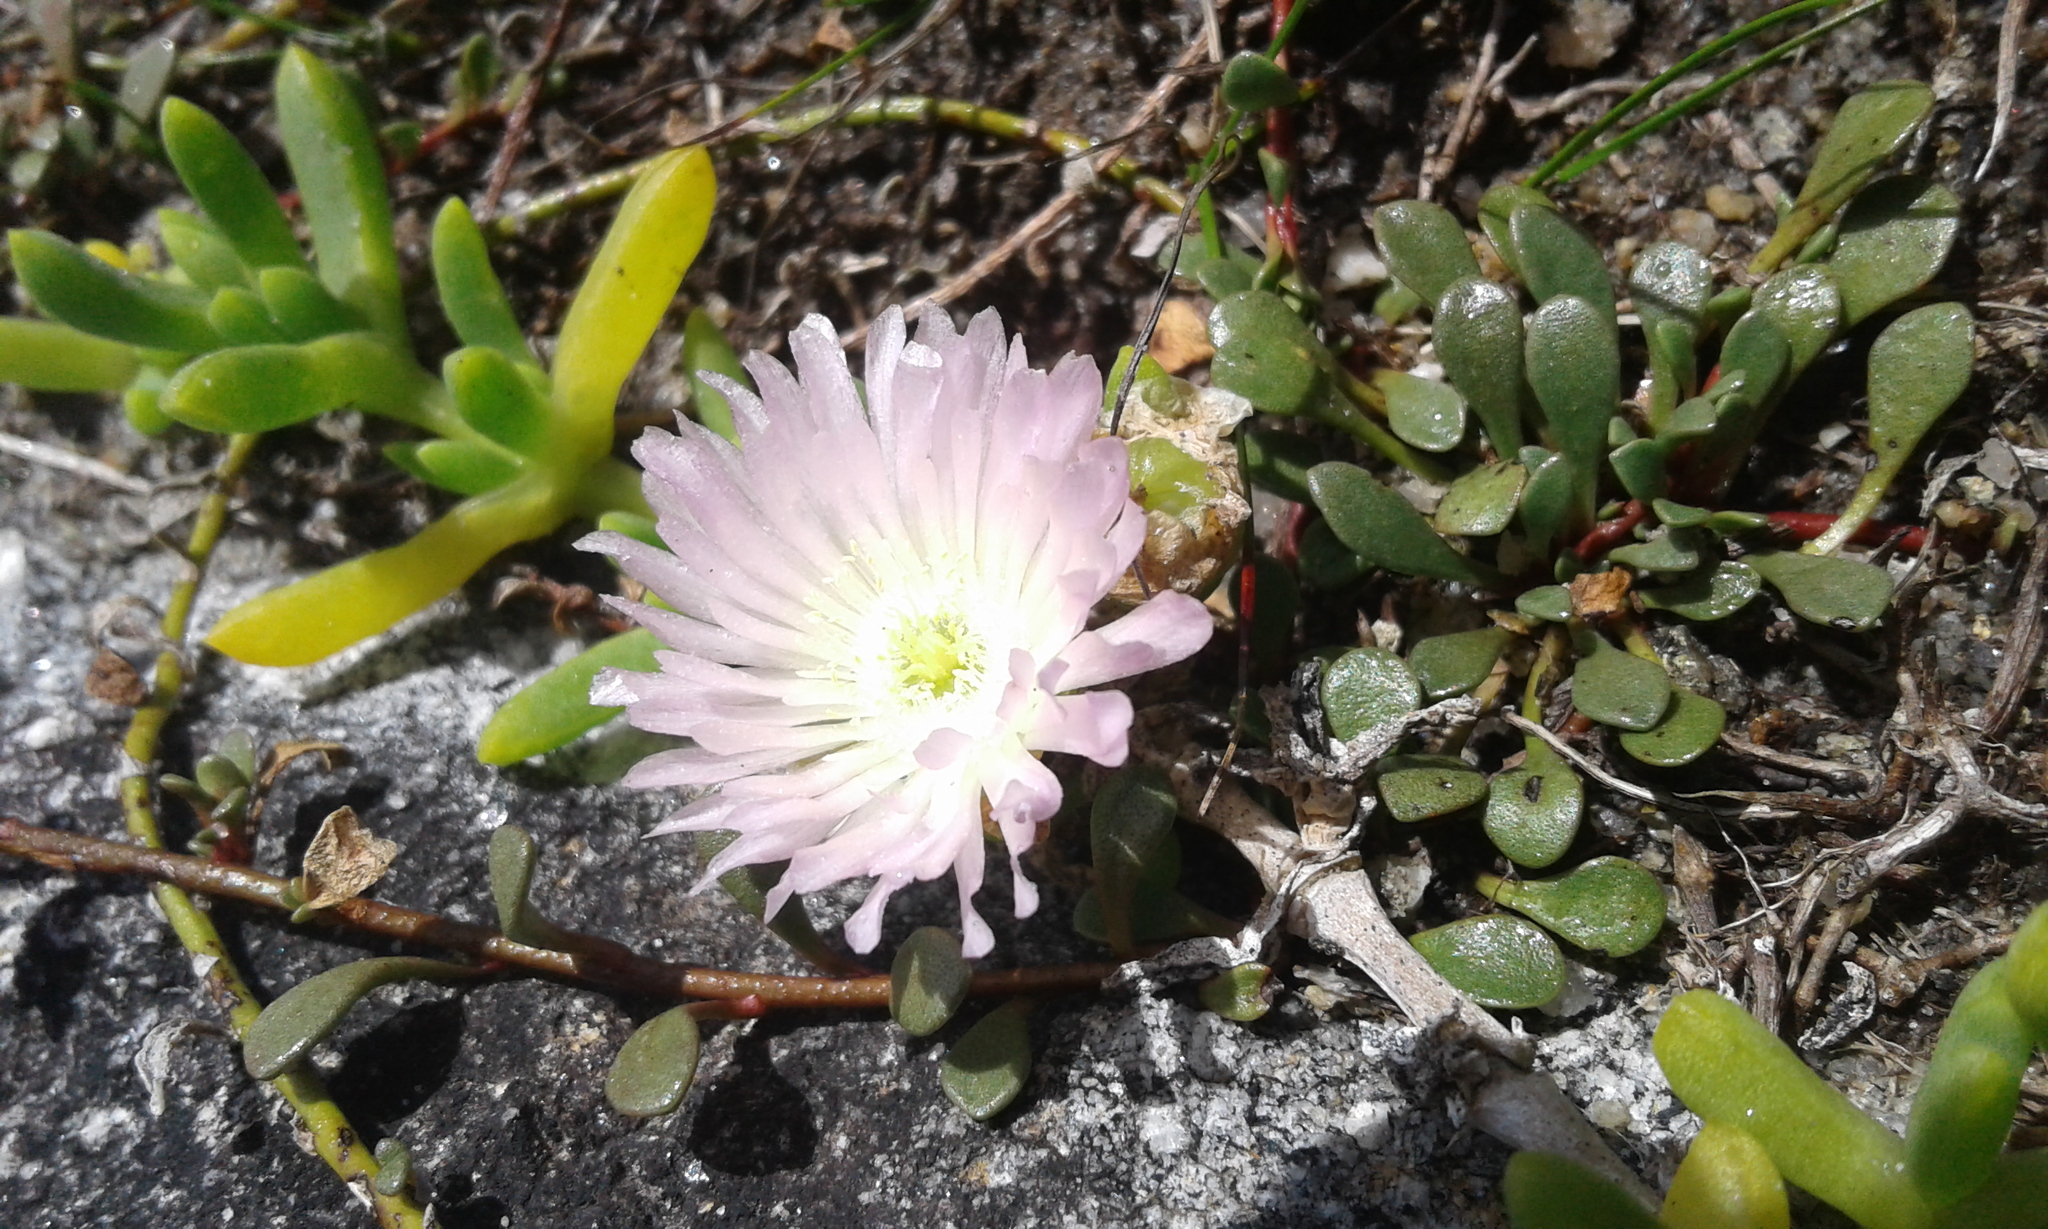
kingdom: Plantae
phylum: Tracheophyta
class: Magnoliopsida
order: Caryophyllales
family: Aizoaceae
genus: Disphyma
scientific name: Disphyma australe
